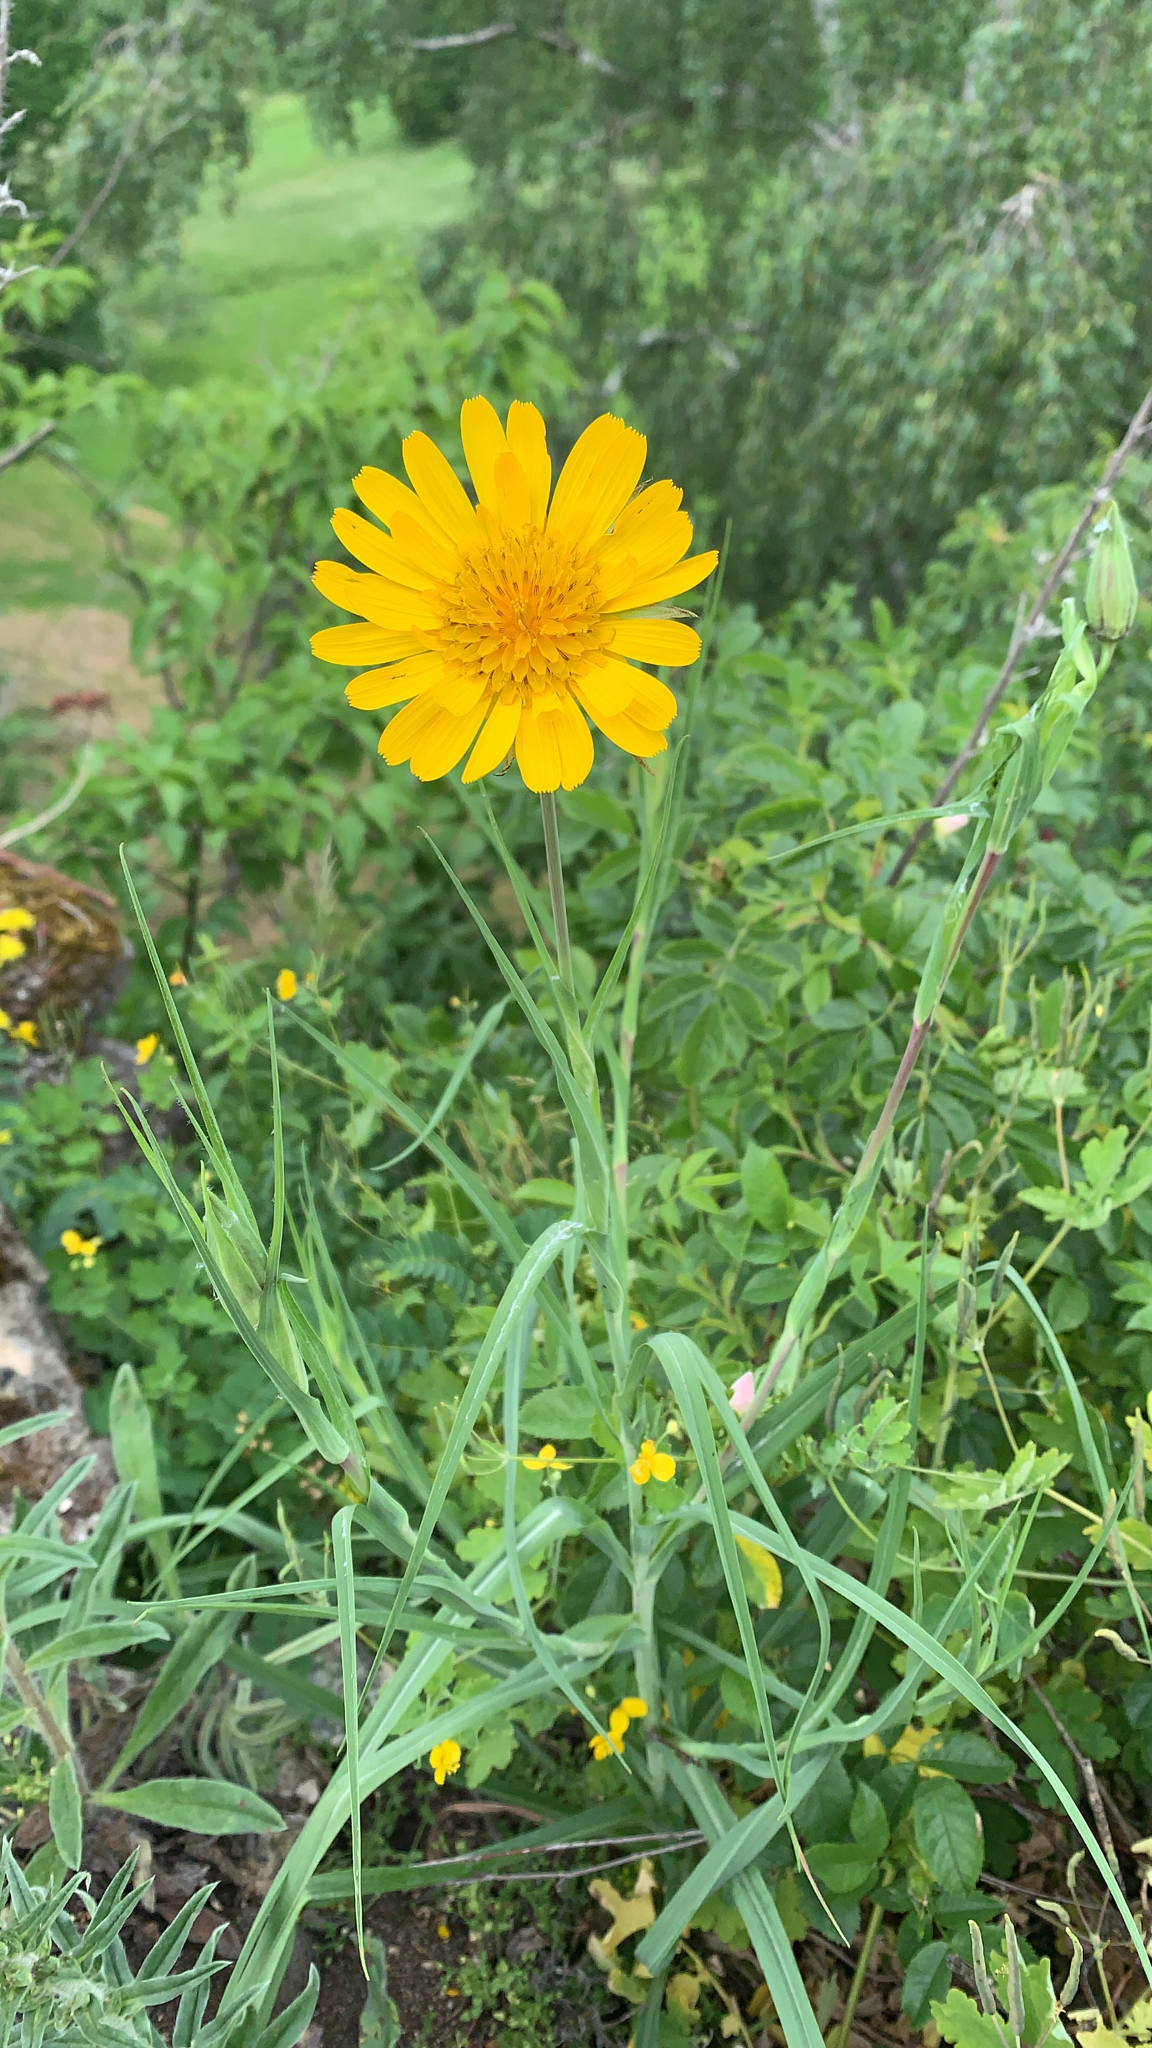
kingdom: Plantae
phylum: Tracheophyta
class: Magnoliopsida
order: Asterales
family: Asteraceae
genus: Tragopogon
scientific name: Tragopogon orientalis
